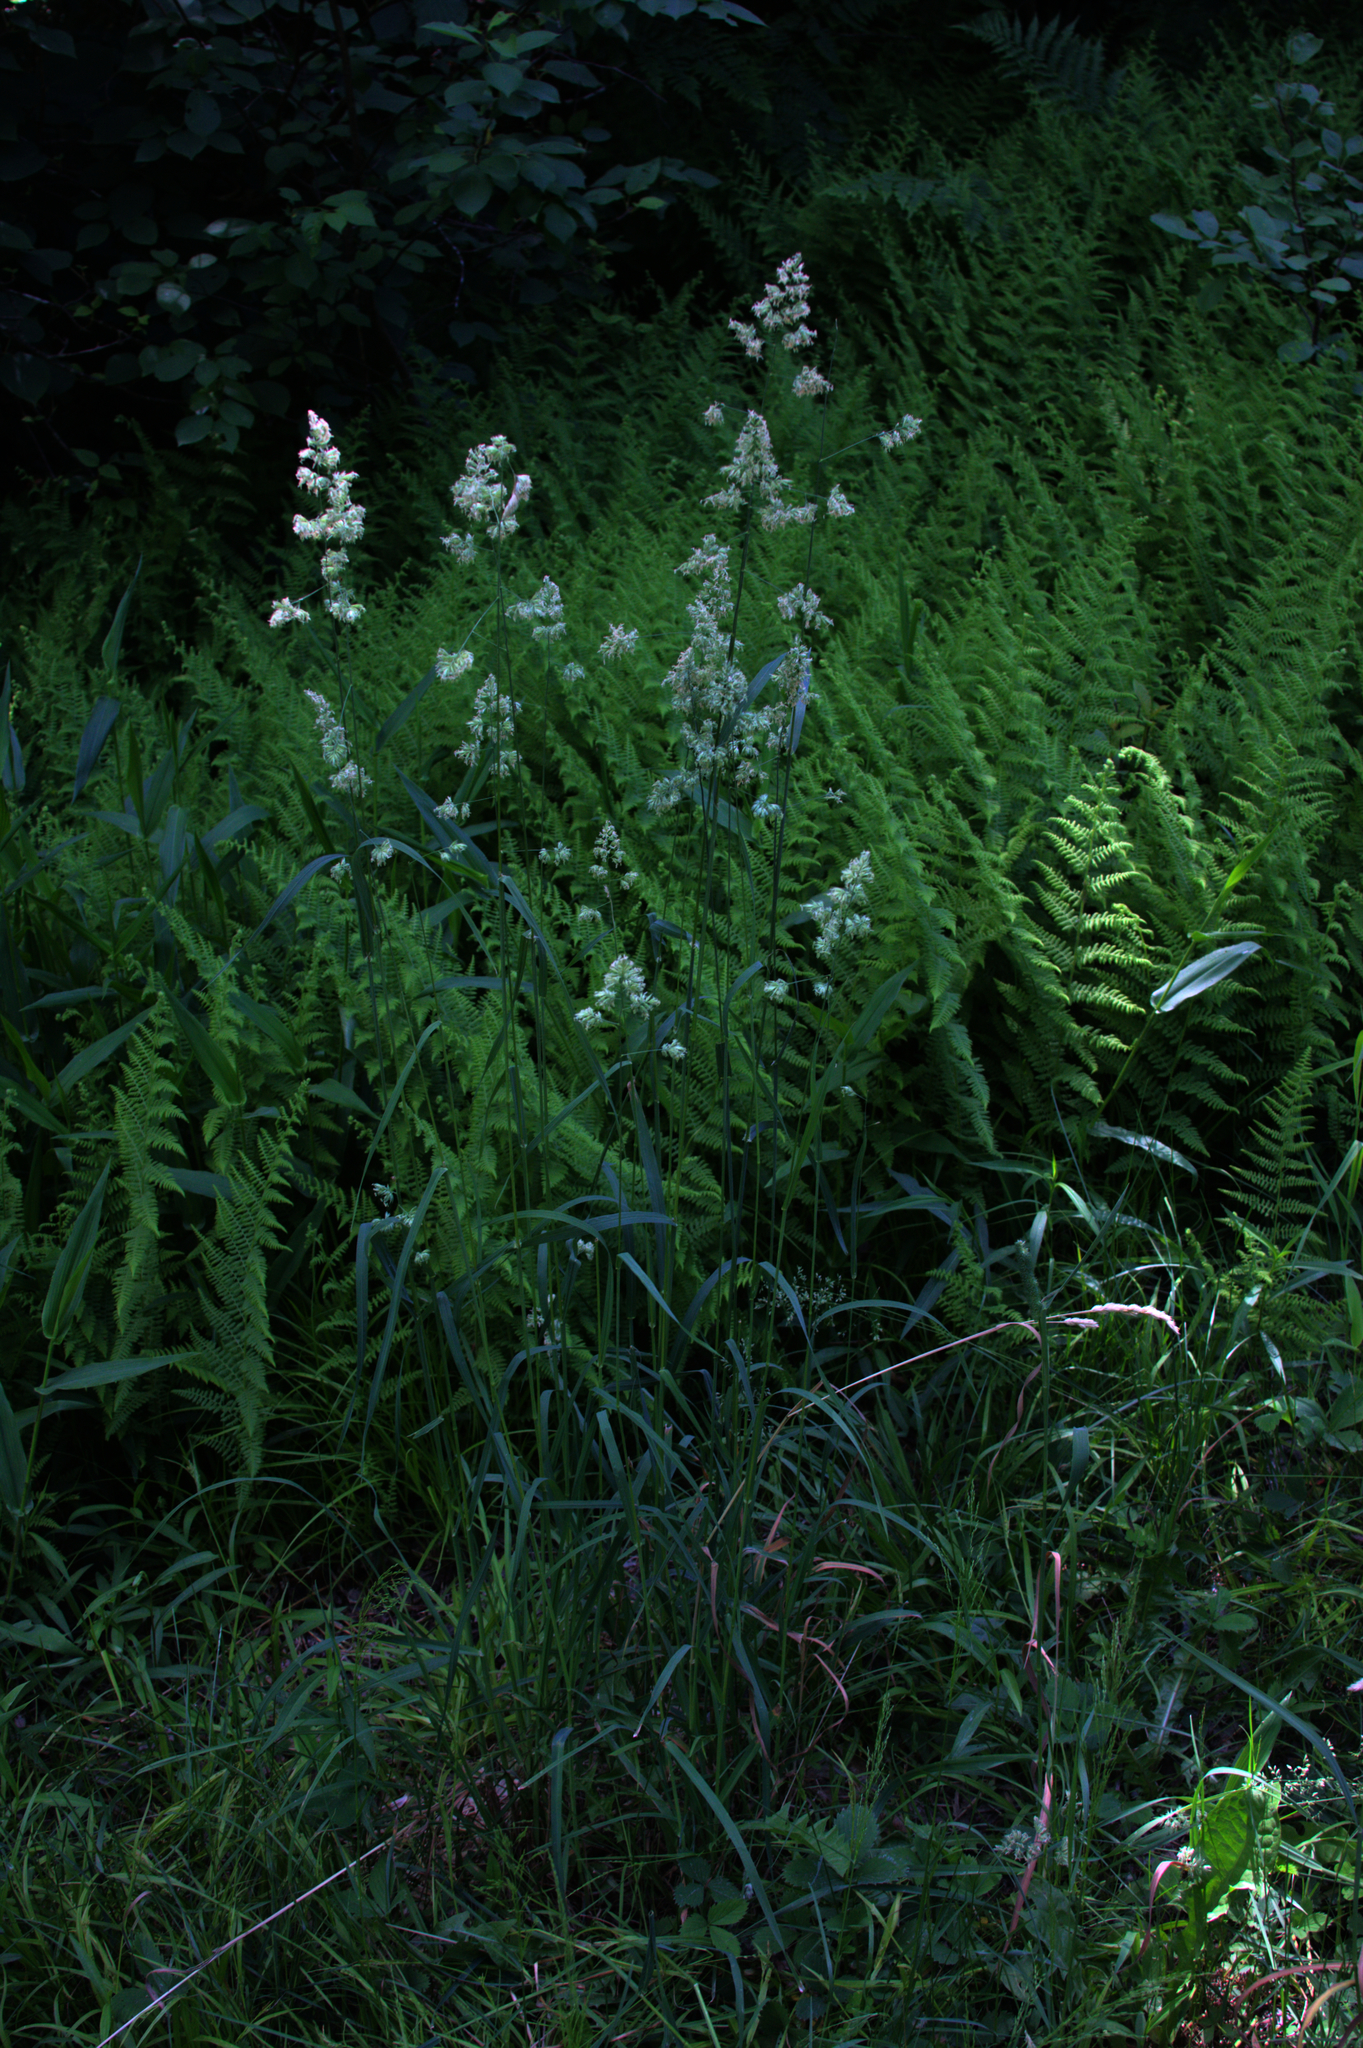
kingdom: Plantae
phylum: Tracheophyta
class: Liliopsida
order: Poales
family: Poaceae
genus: Dactylis
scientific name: Dactylis glomerata
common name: Orchardgrass
